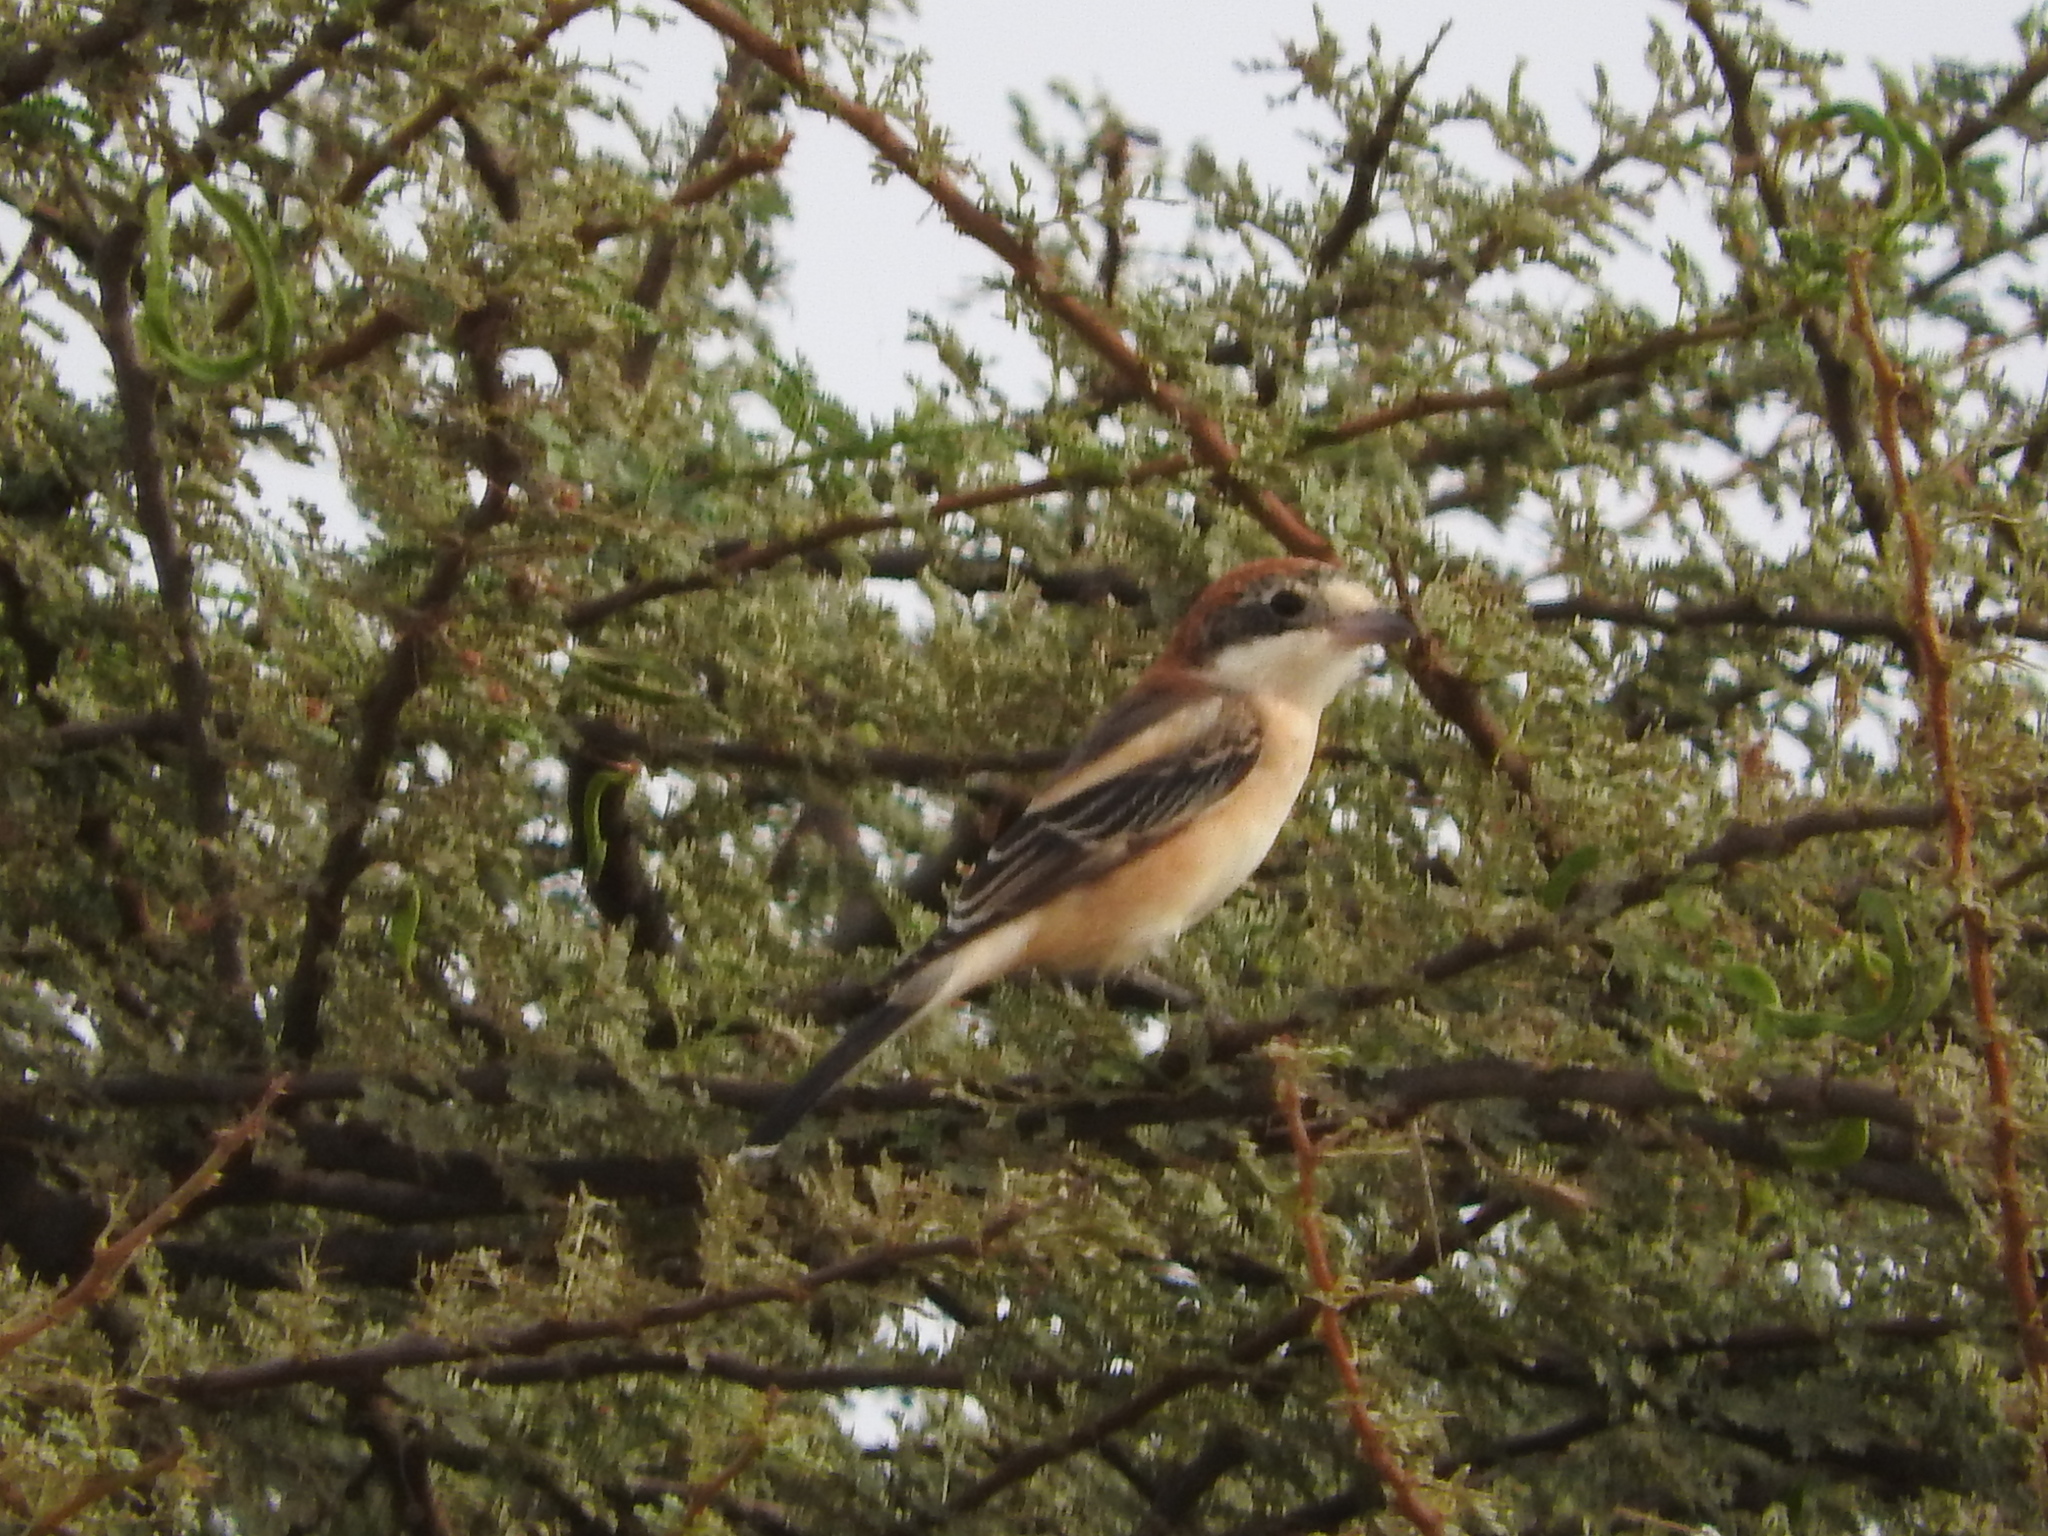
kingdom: Animalia
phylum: Chordata
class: Aves
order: Passeriformes
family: Laniidae
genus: Lanius
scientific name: Lanius senator
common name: Woodchat shrike
